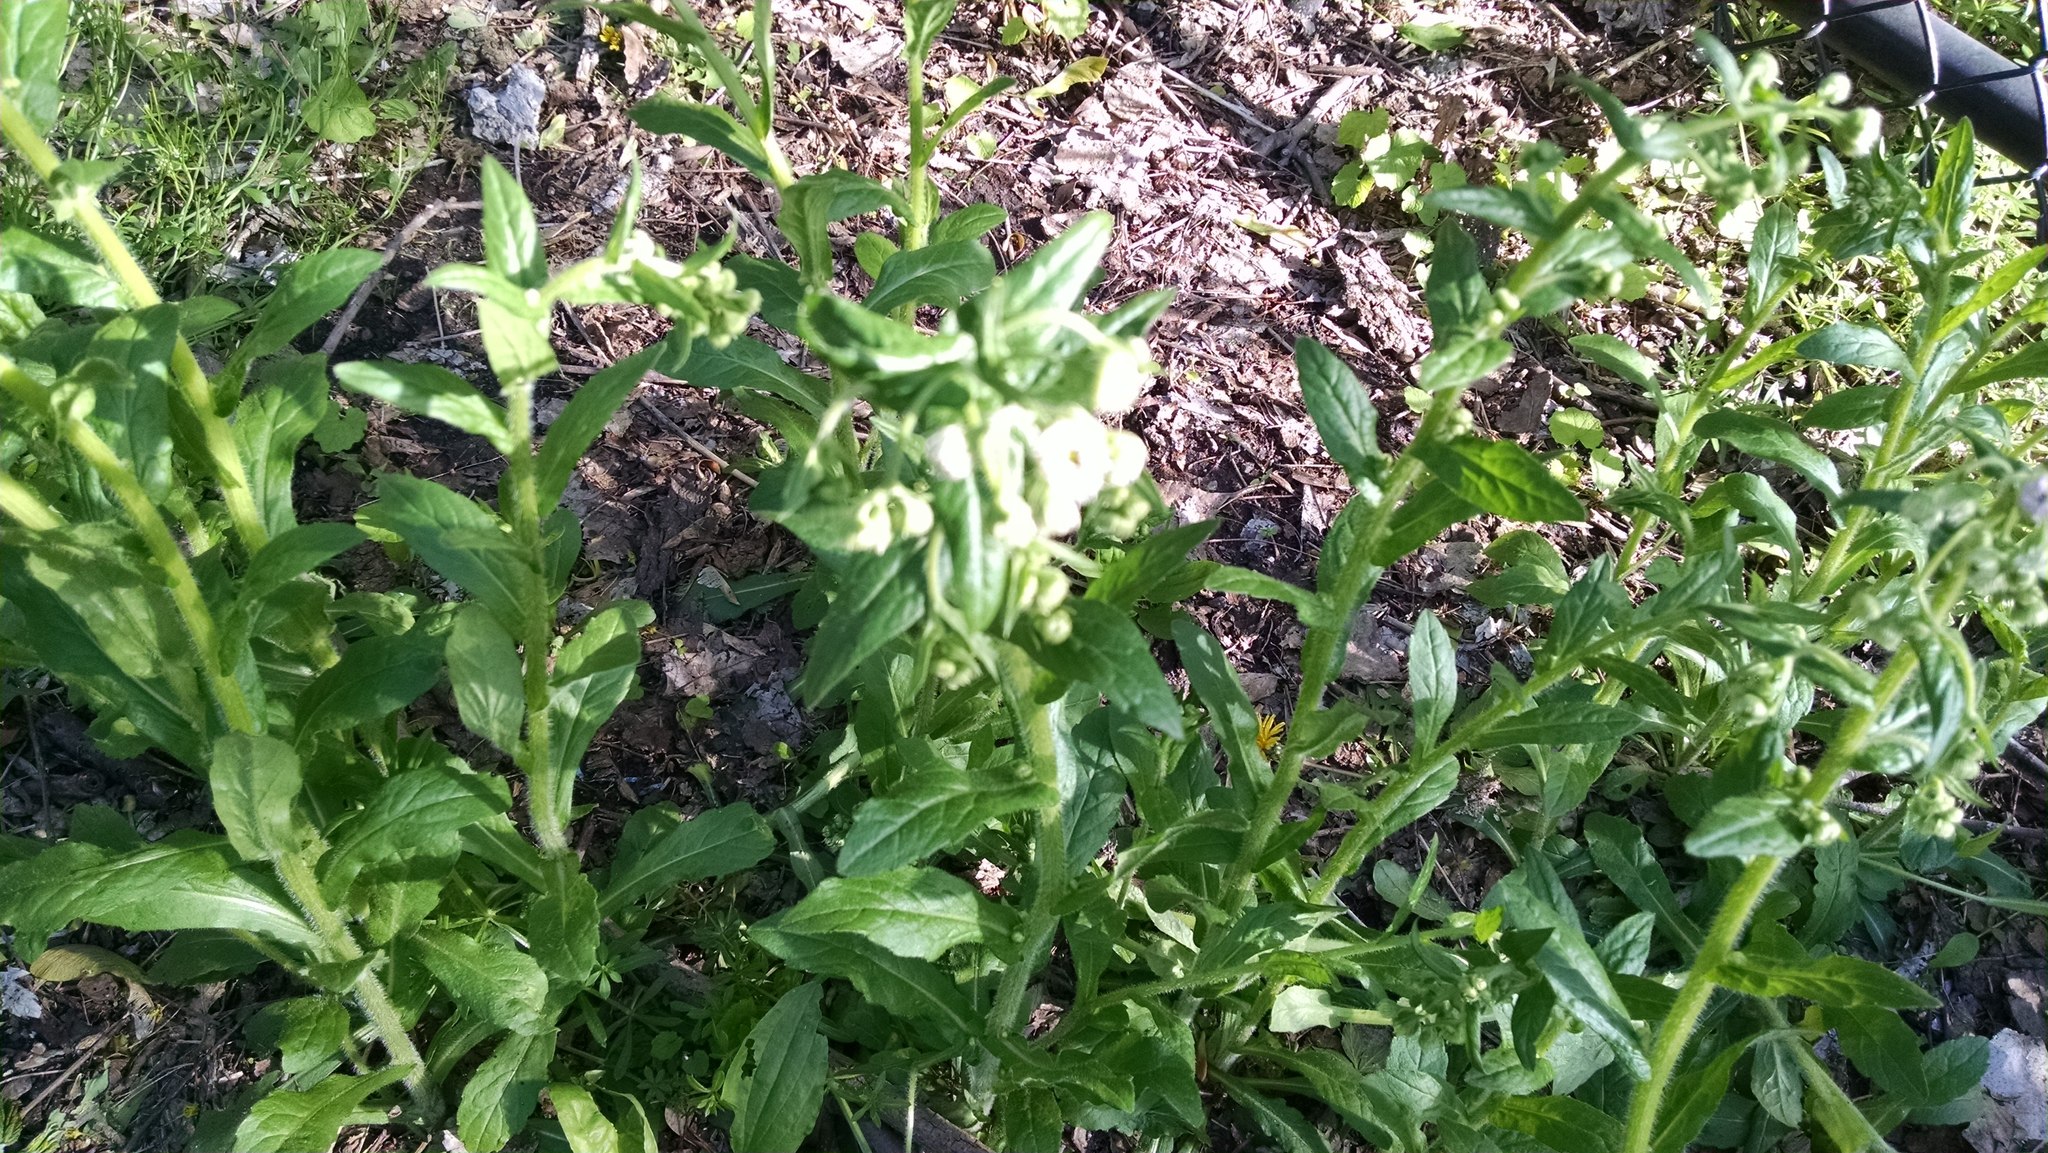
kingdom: Plantae
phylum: Tracheophyta
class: Magnoliopsida
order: Asterales
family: Asteraceae
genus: Erigeron
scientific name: Erigeron philadelphicus
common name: Robin's-plantain
